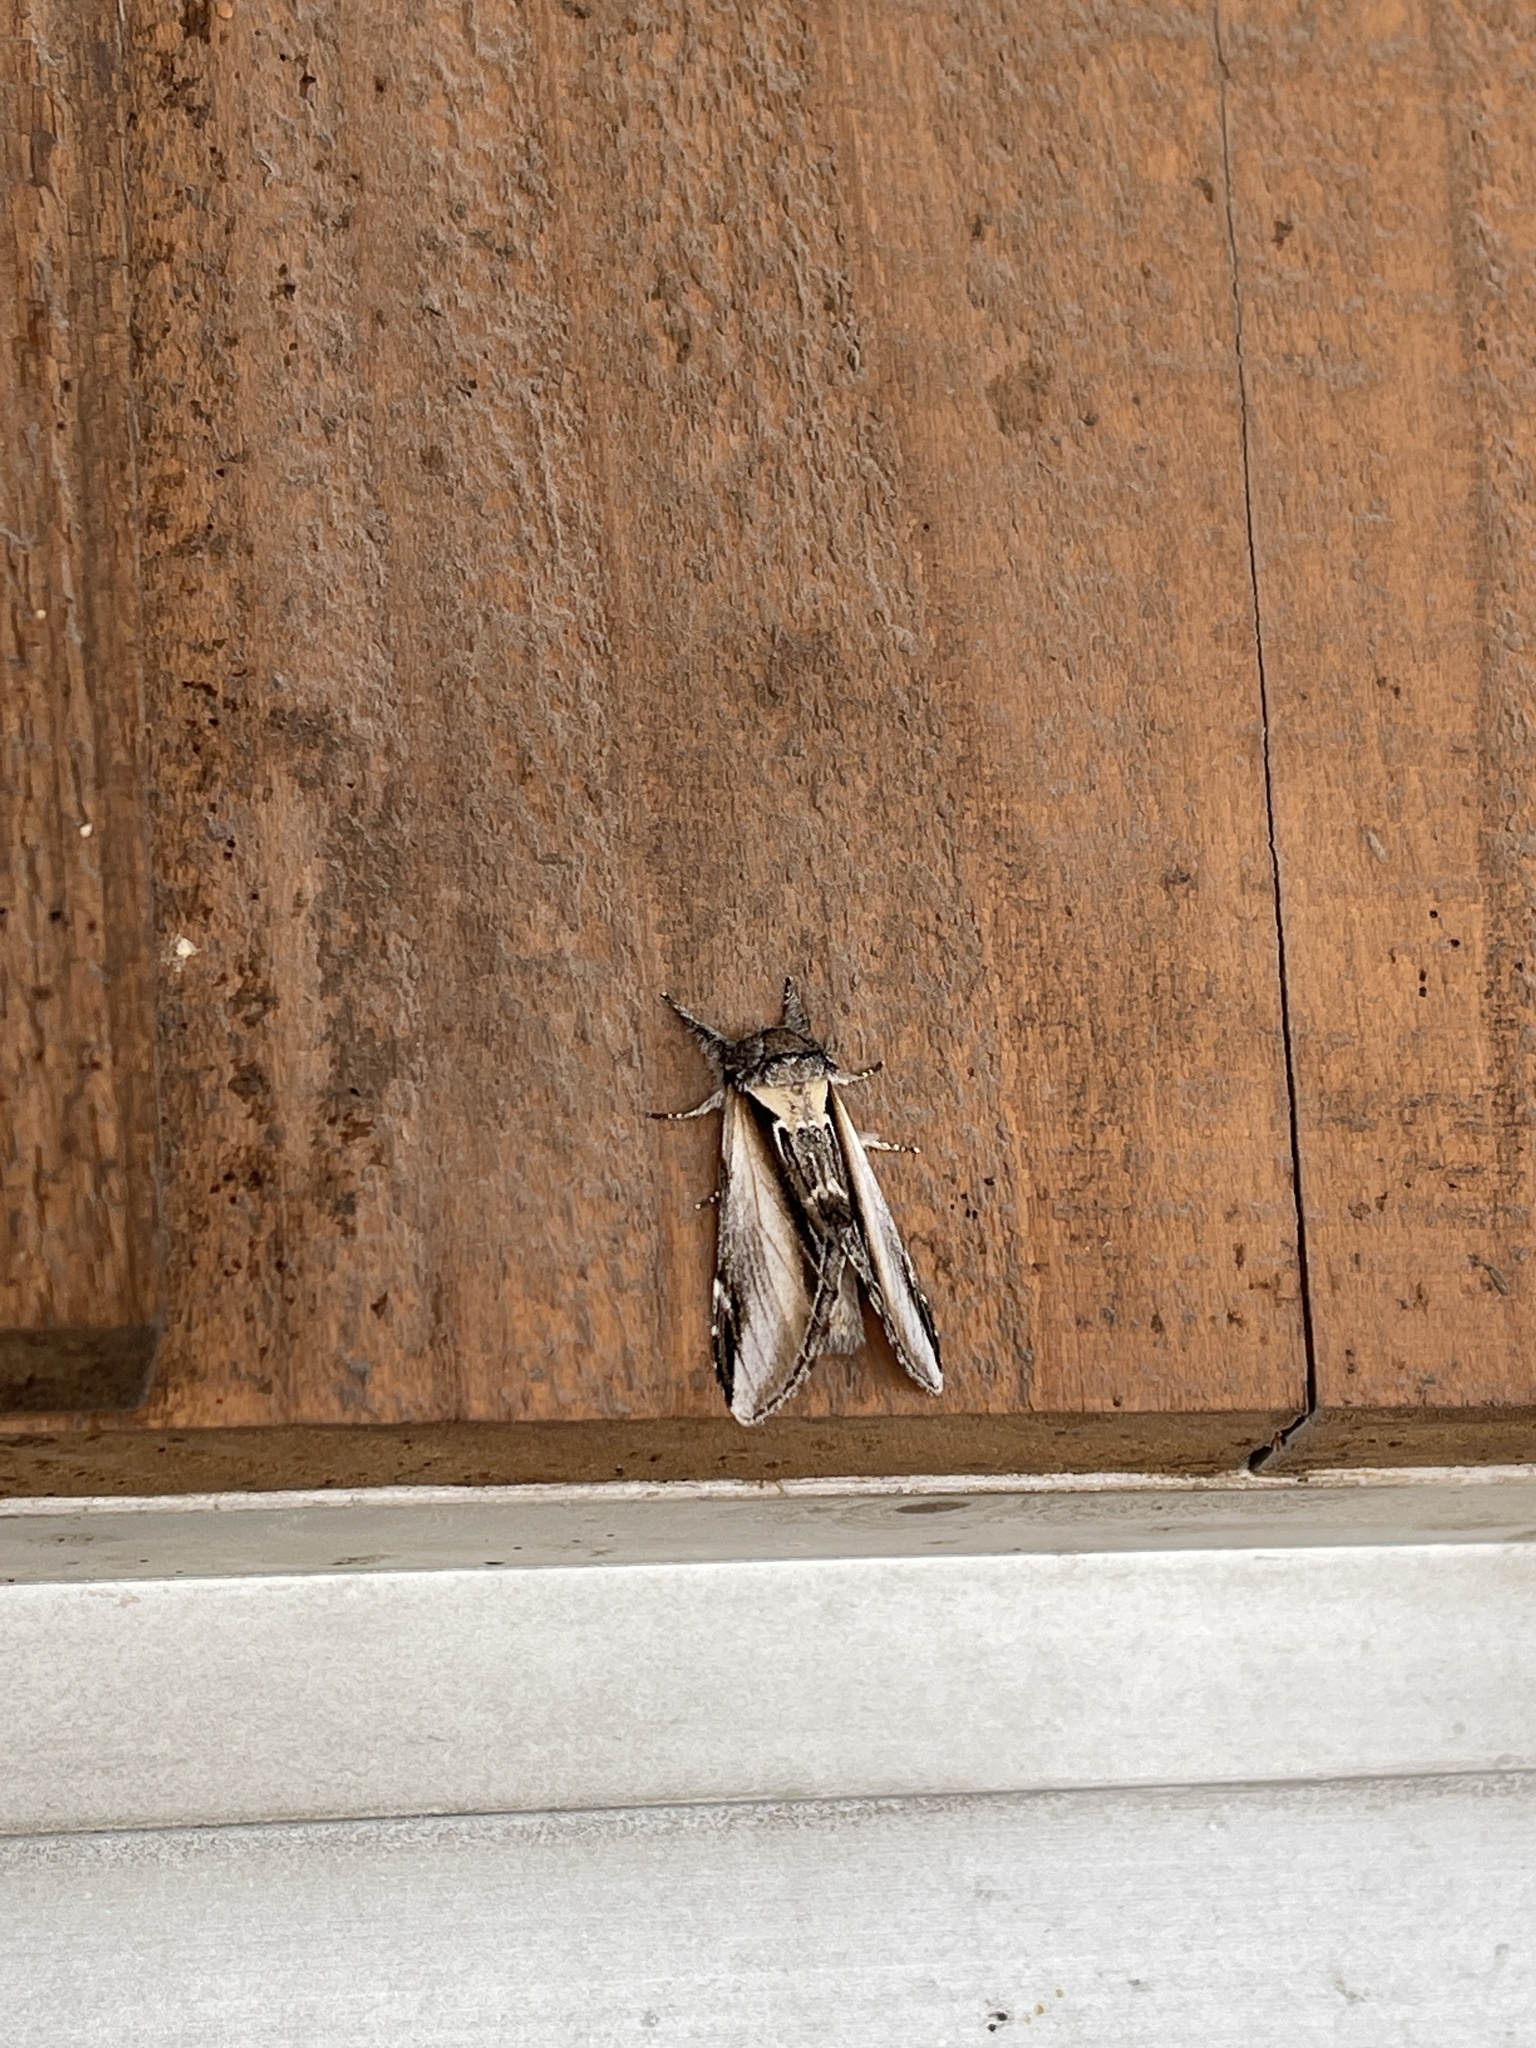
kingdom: Animalia
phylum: Arthropoda
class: Insecta
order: Lepidoptera
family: Notodontidae
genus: Pheosia
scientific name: Pheosia rimosa
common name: Black-rimmed prominent
